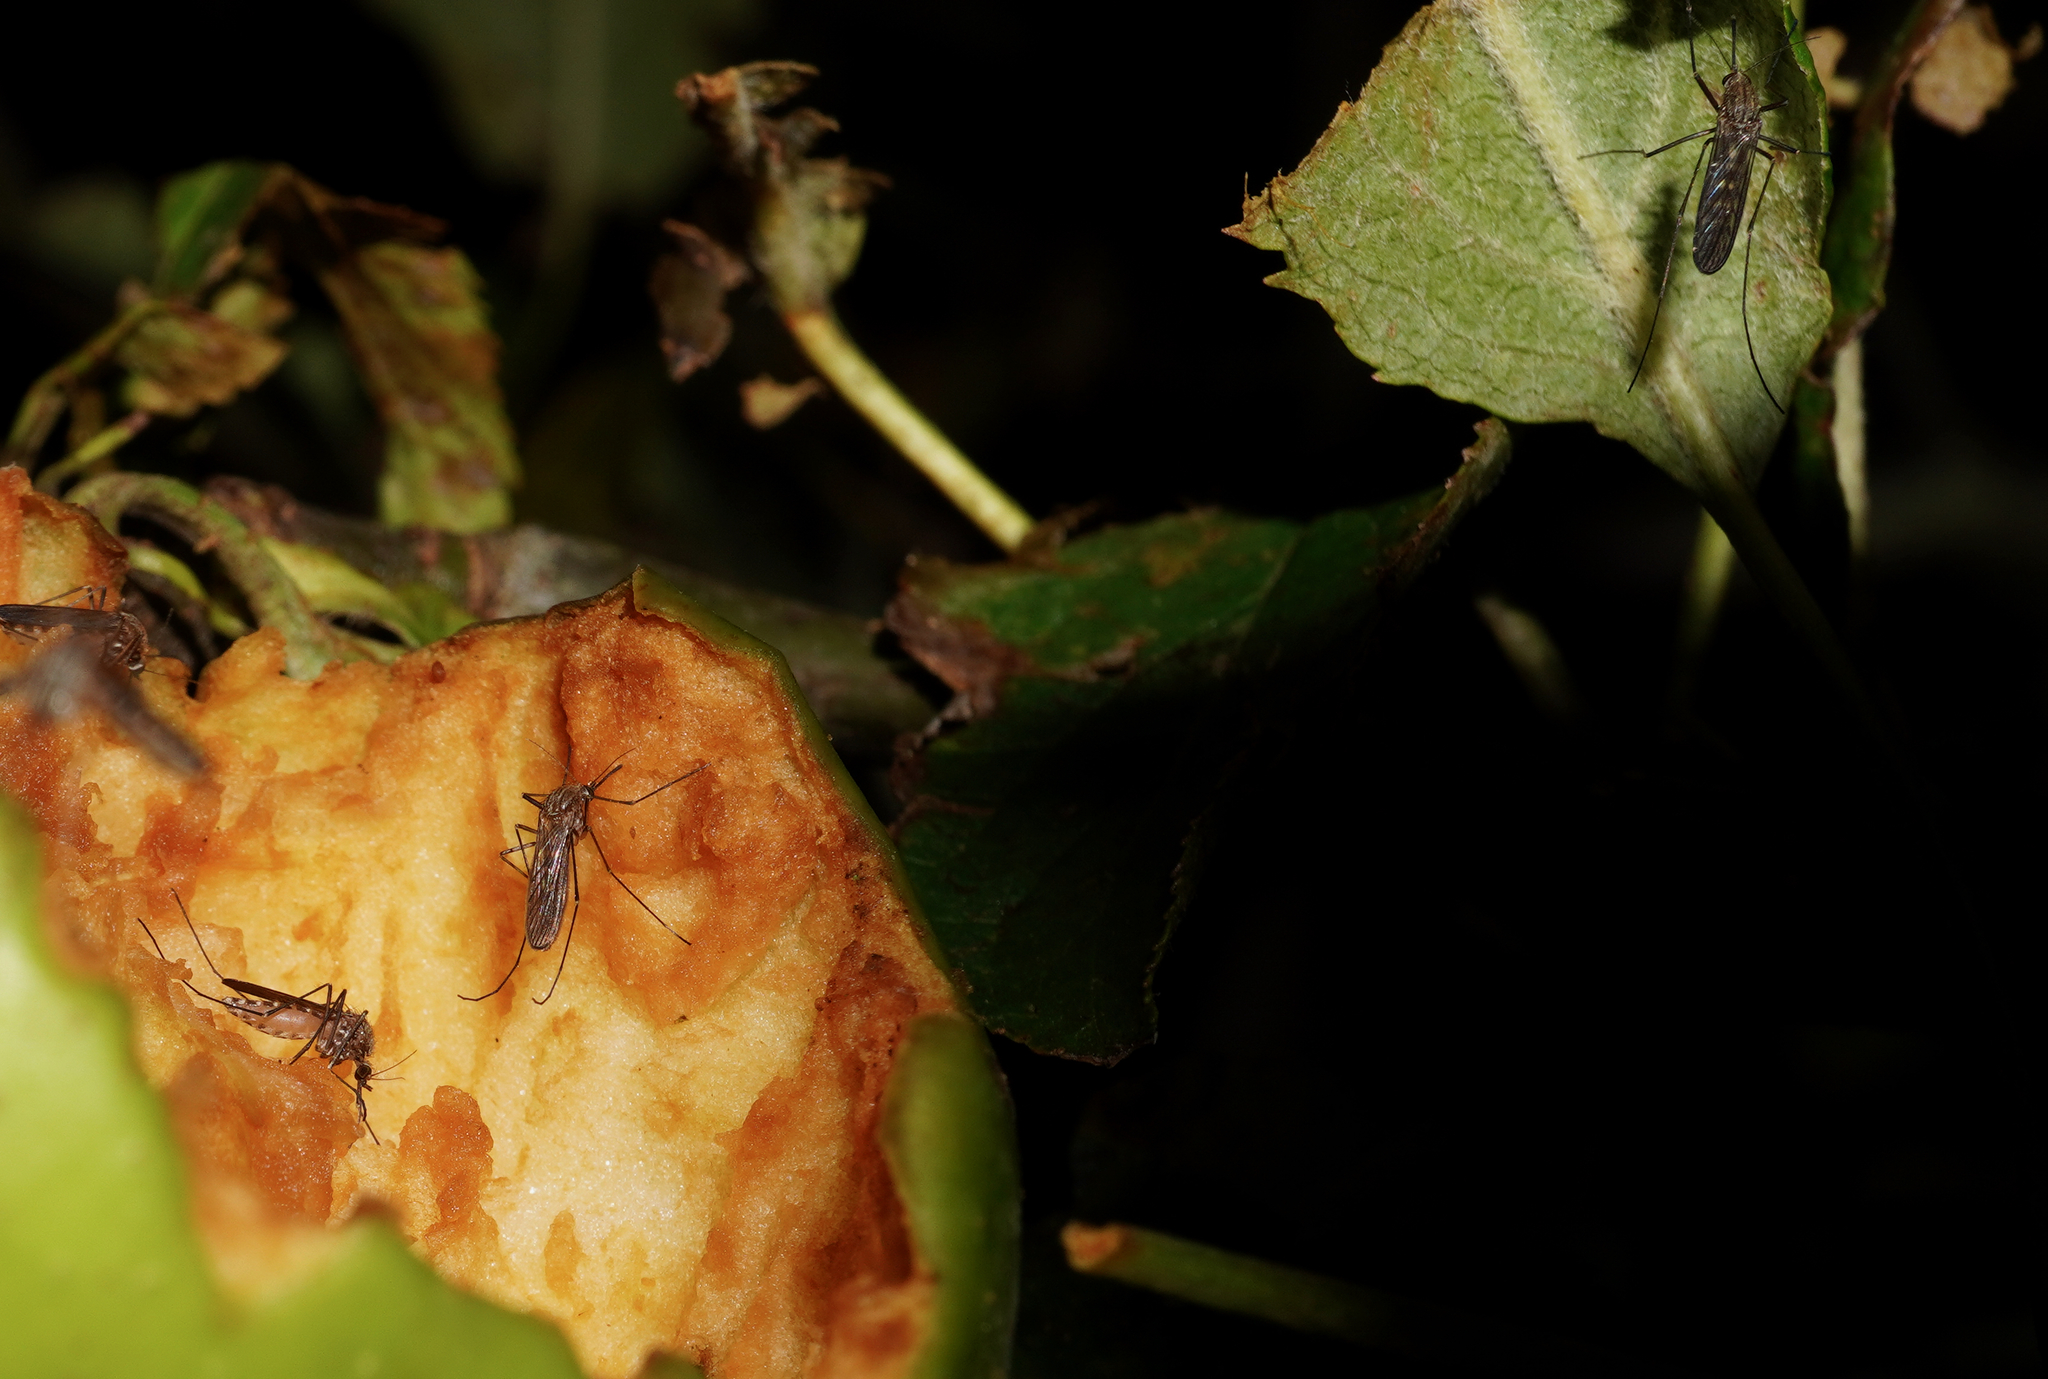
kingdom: Animalia
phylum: Arthropoda
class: Insecta
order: Diptera
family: Culicidae
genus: Culex
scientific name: Culex pervigilans
